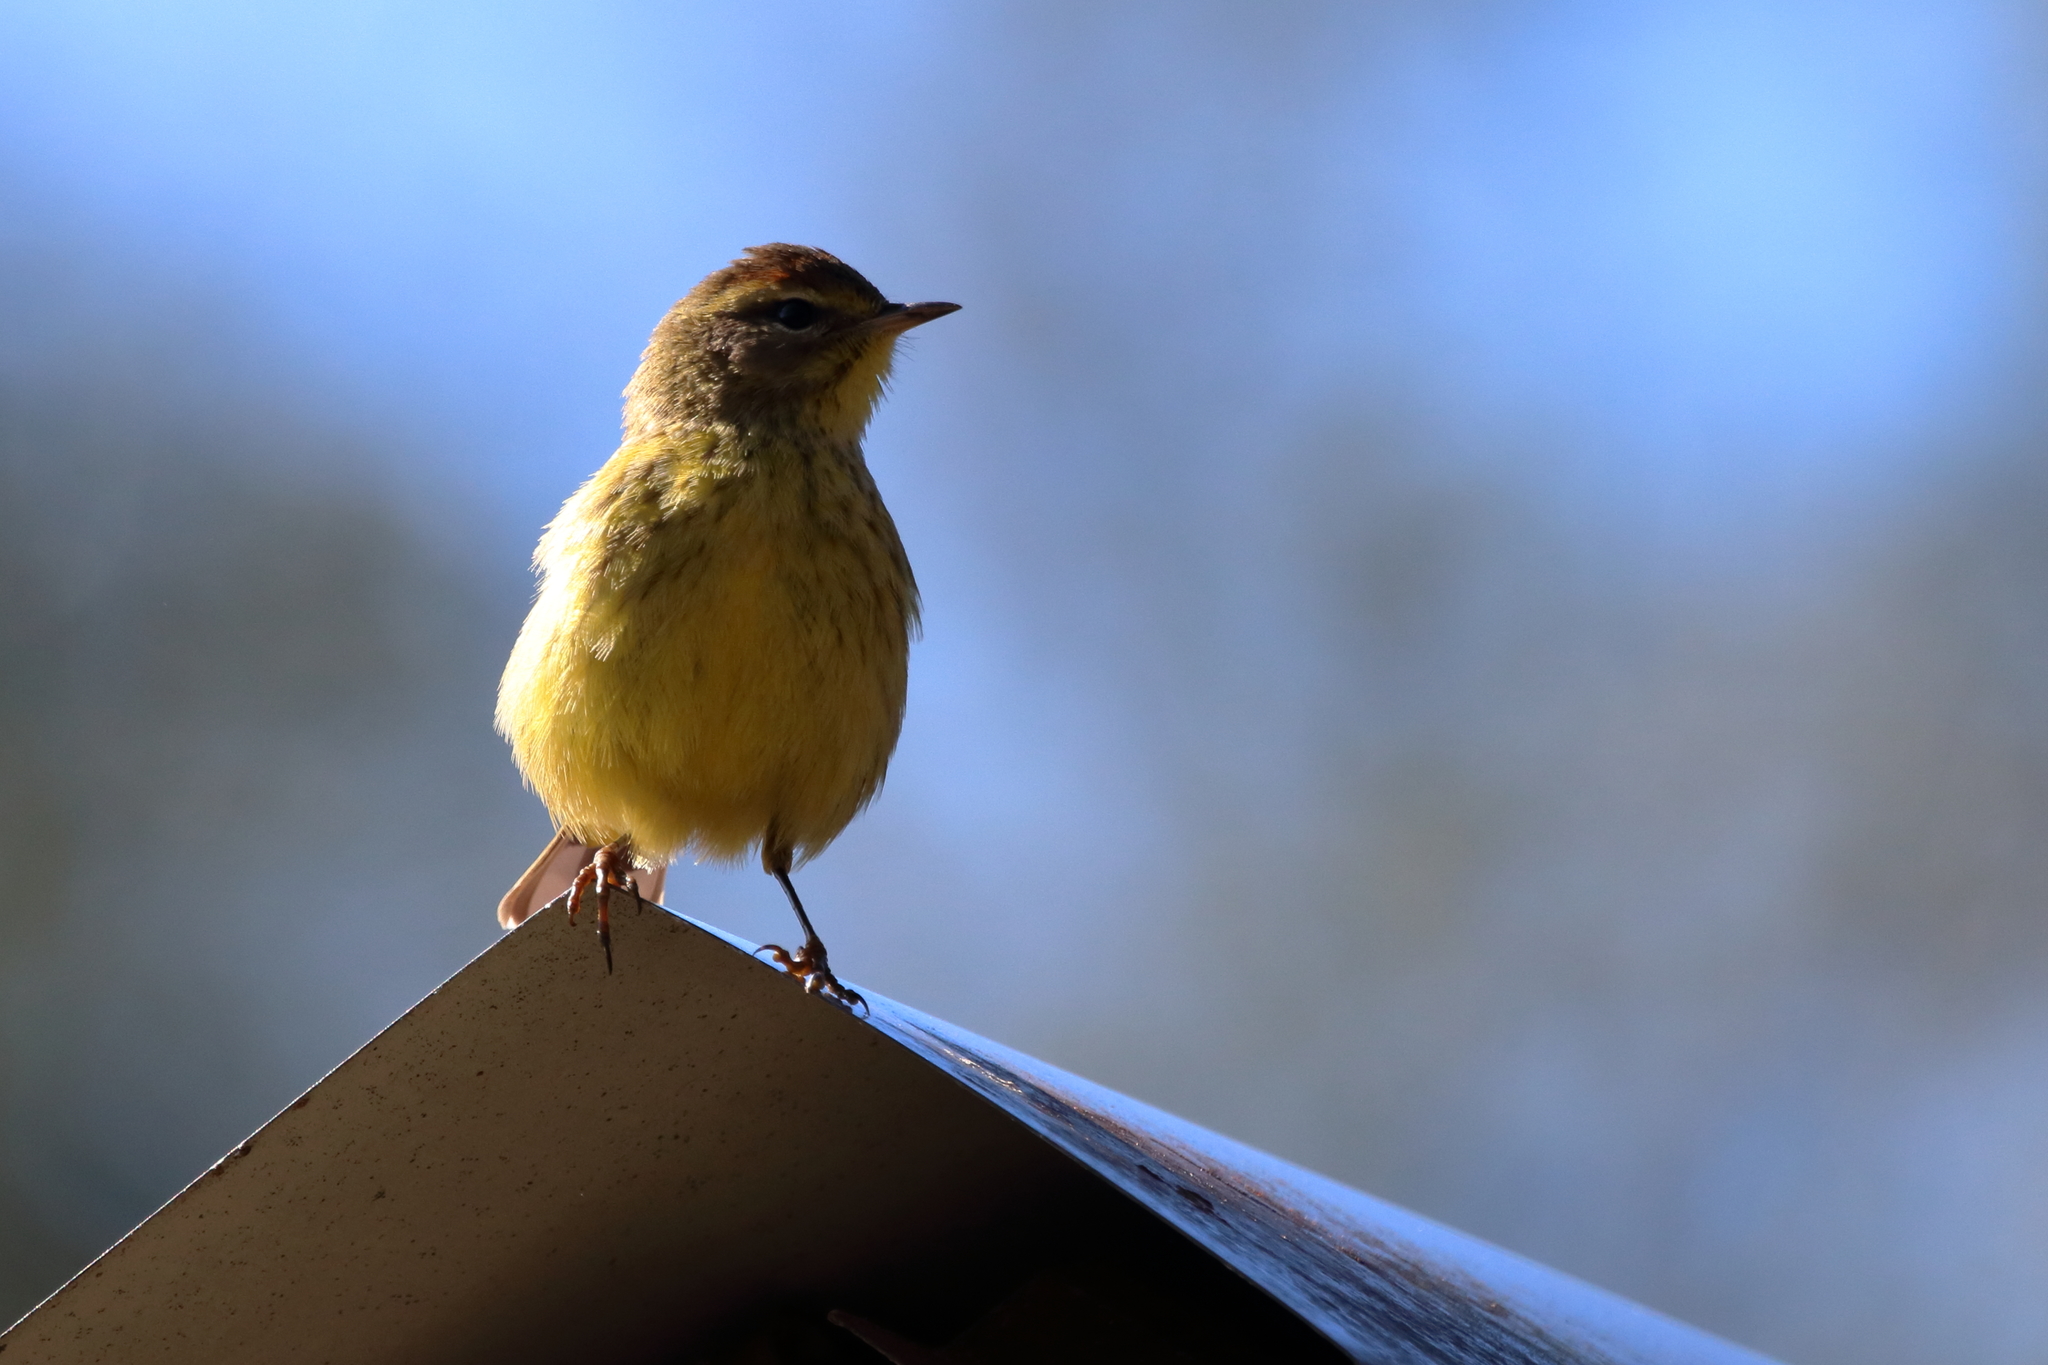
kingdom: Animalia
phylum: Chordata
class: Aves
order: Passeriformes
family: Parulidae
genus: Setophaga
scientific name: Setophaga palmarum
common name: Palm warbler
